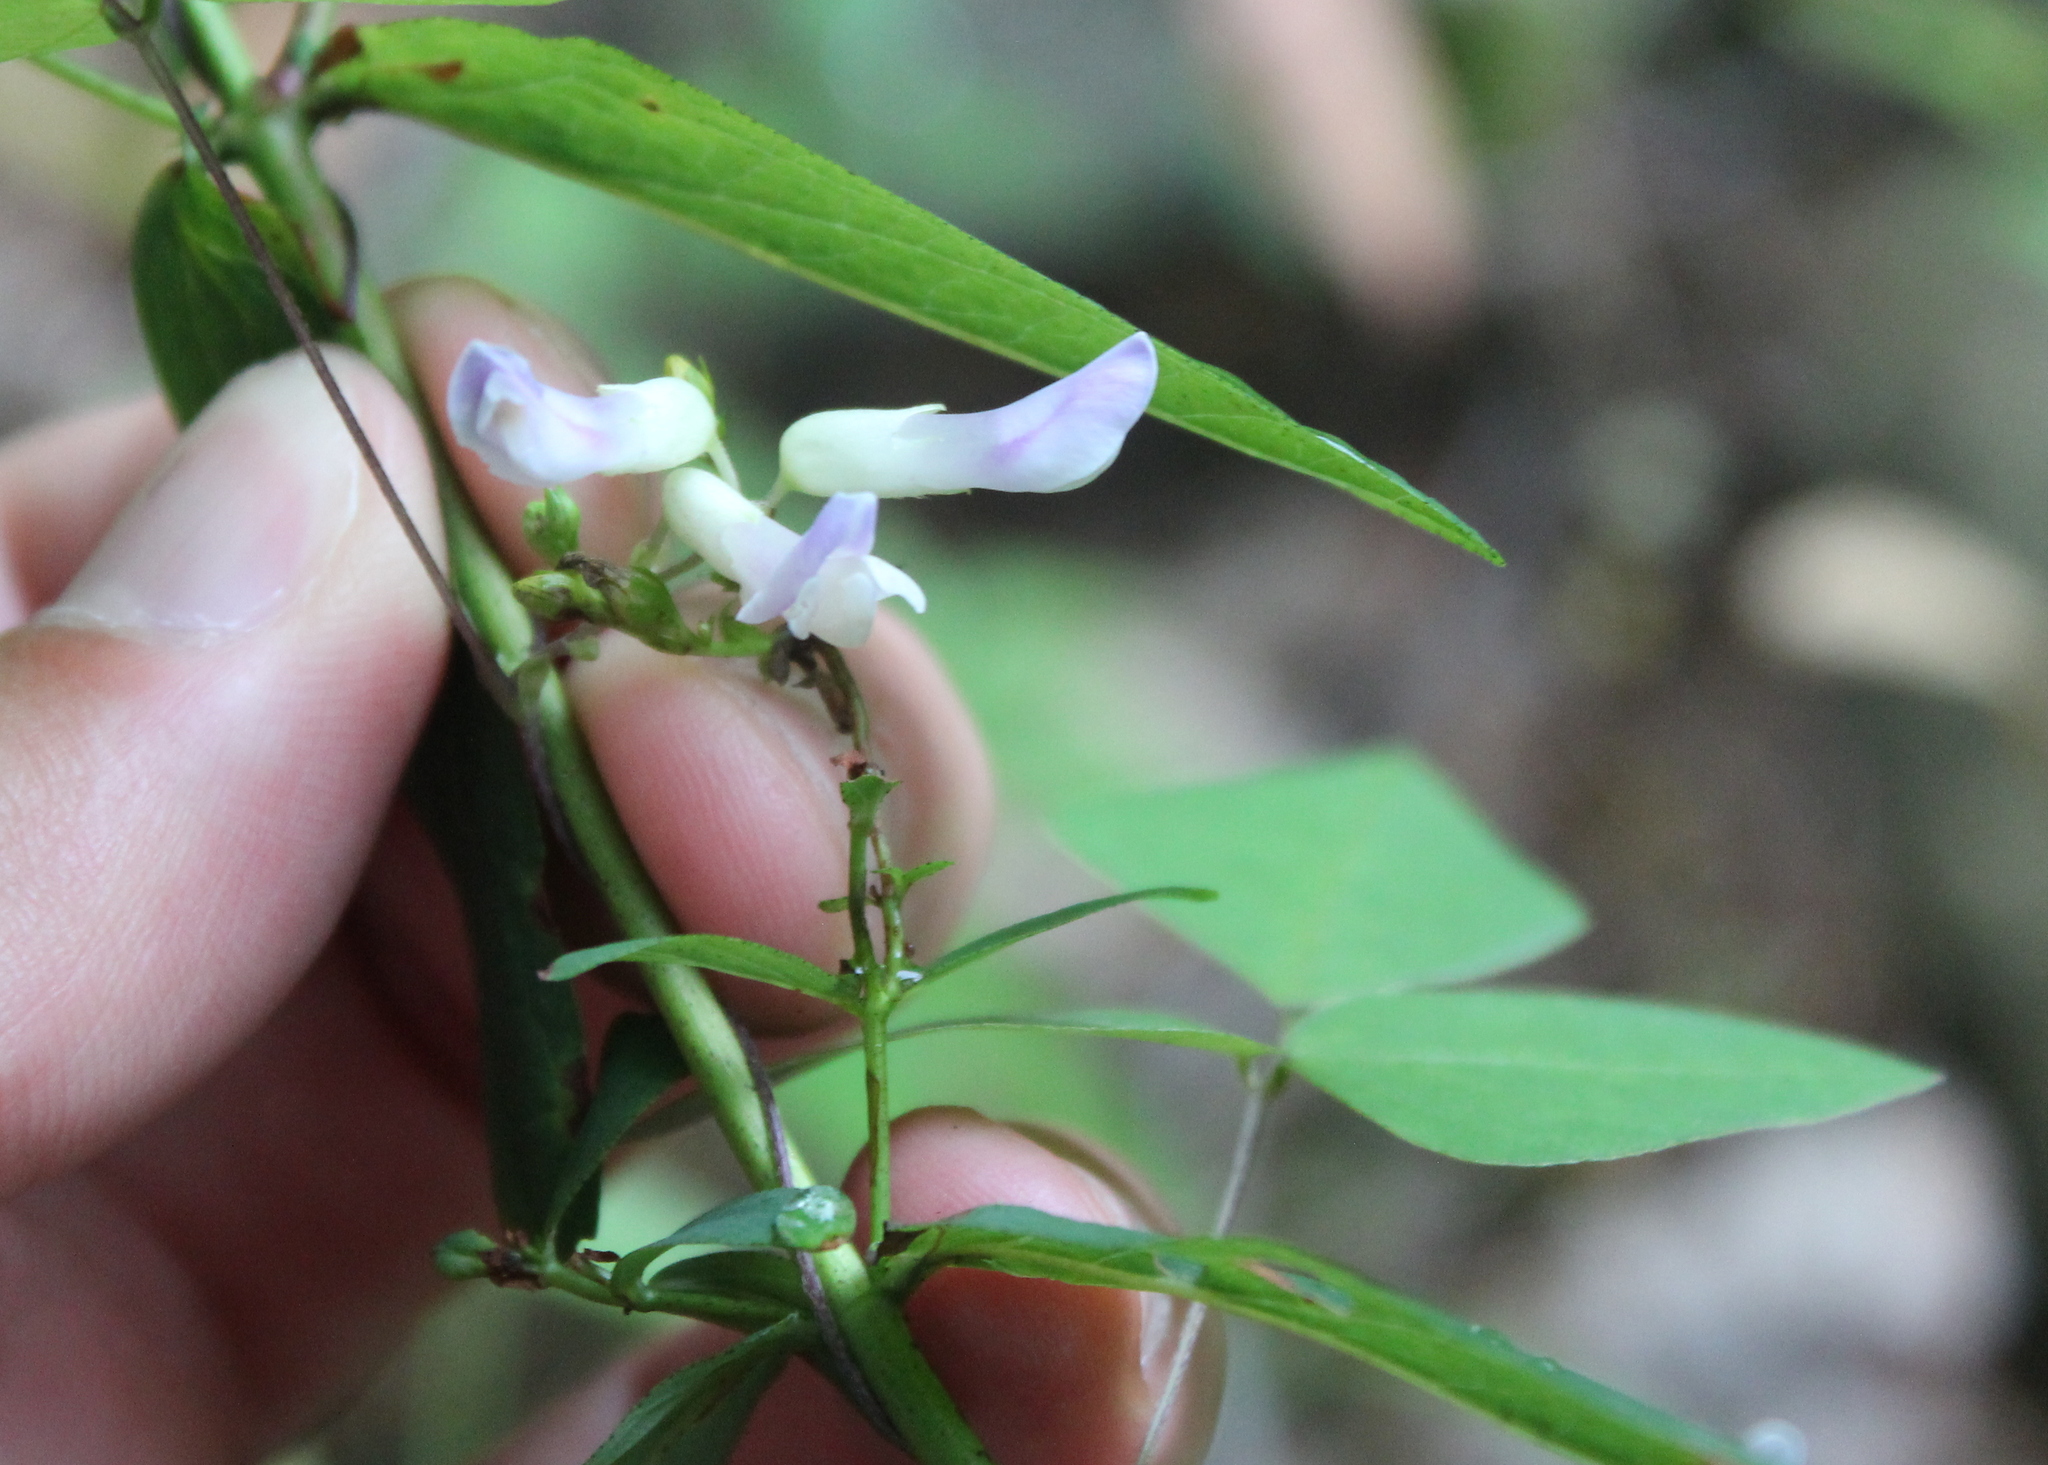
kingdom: Plantae
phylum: Tracheophyta
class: Magnoliopsida
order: Fabales
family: Fabaceae
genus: Amphicarpaea
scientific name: Amphicarpaea bracteata
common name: American hog peanut
